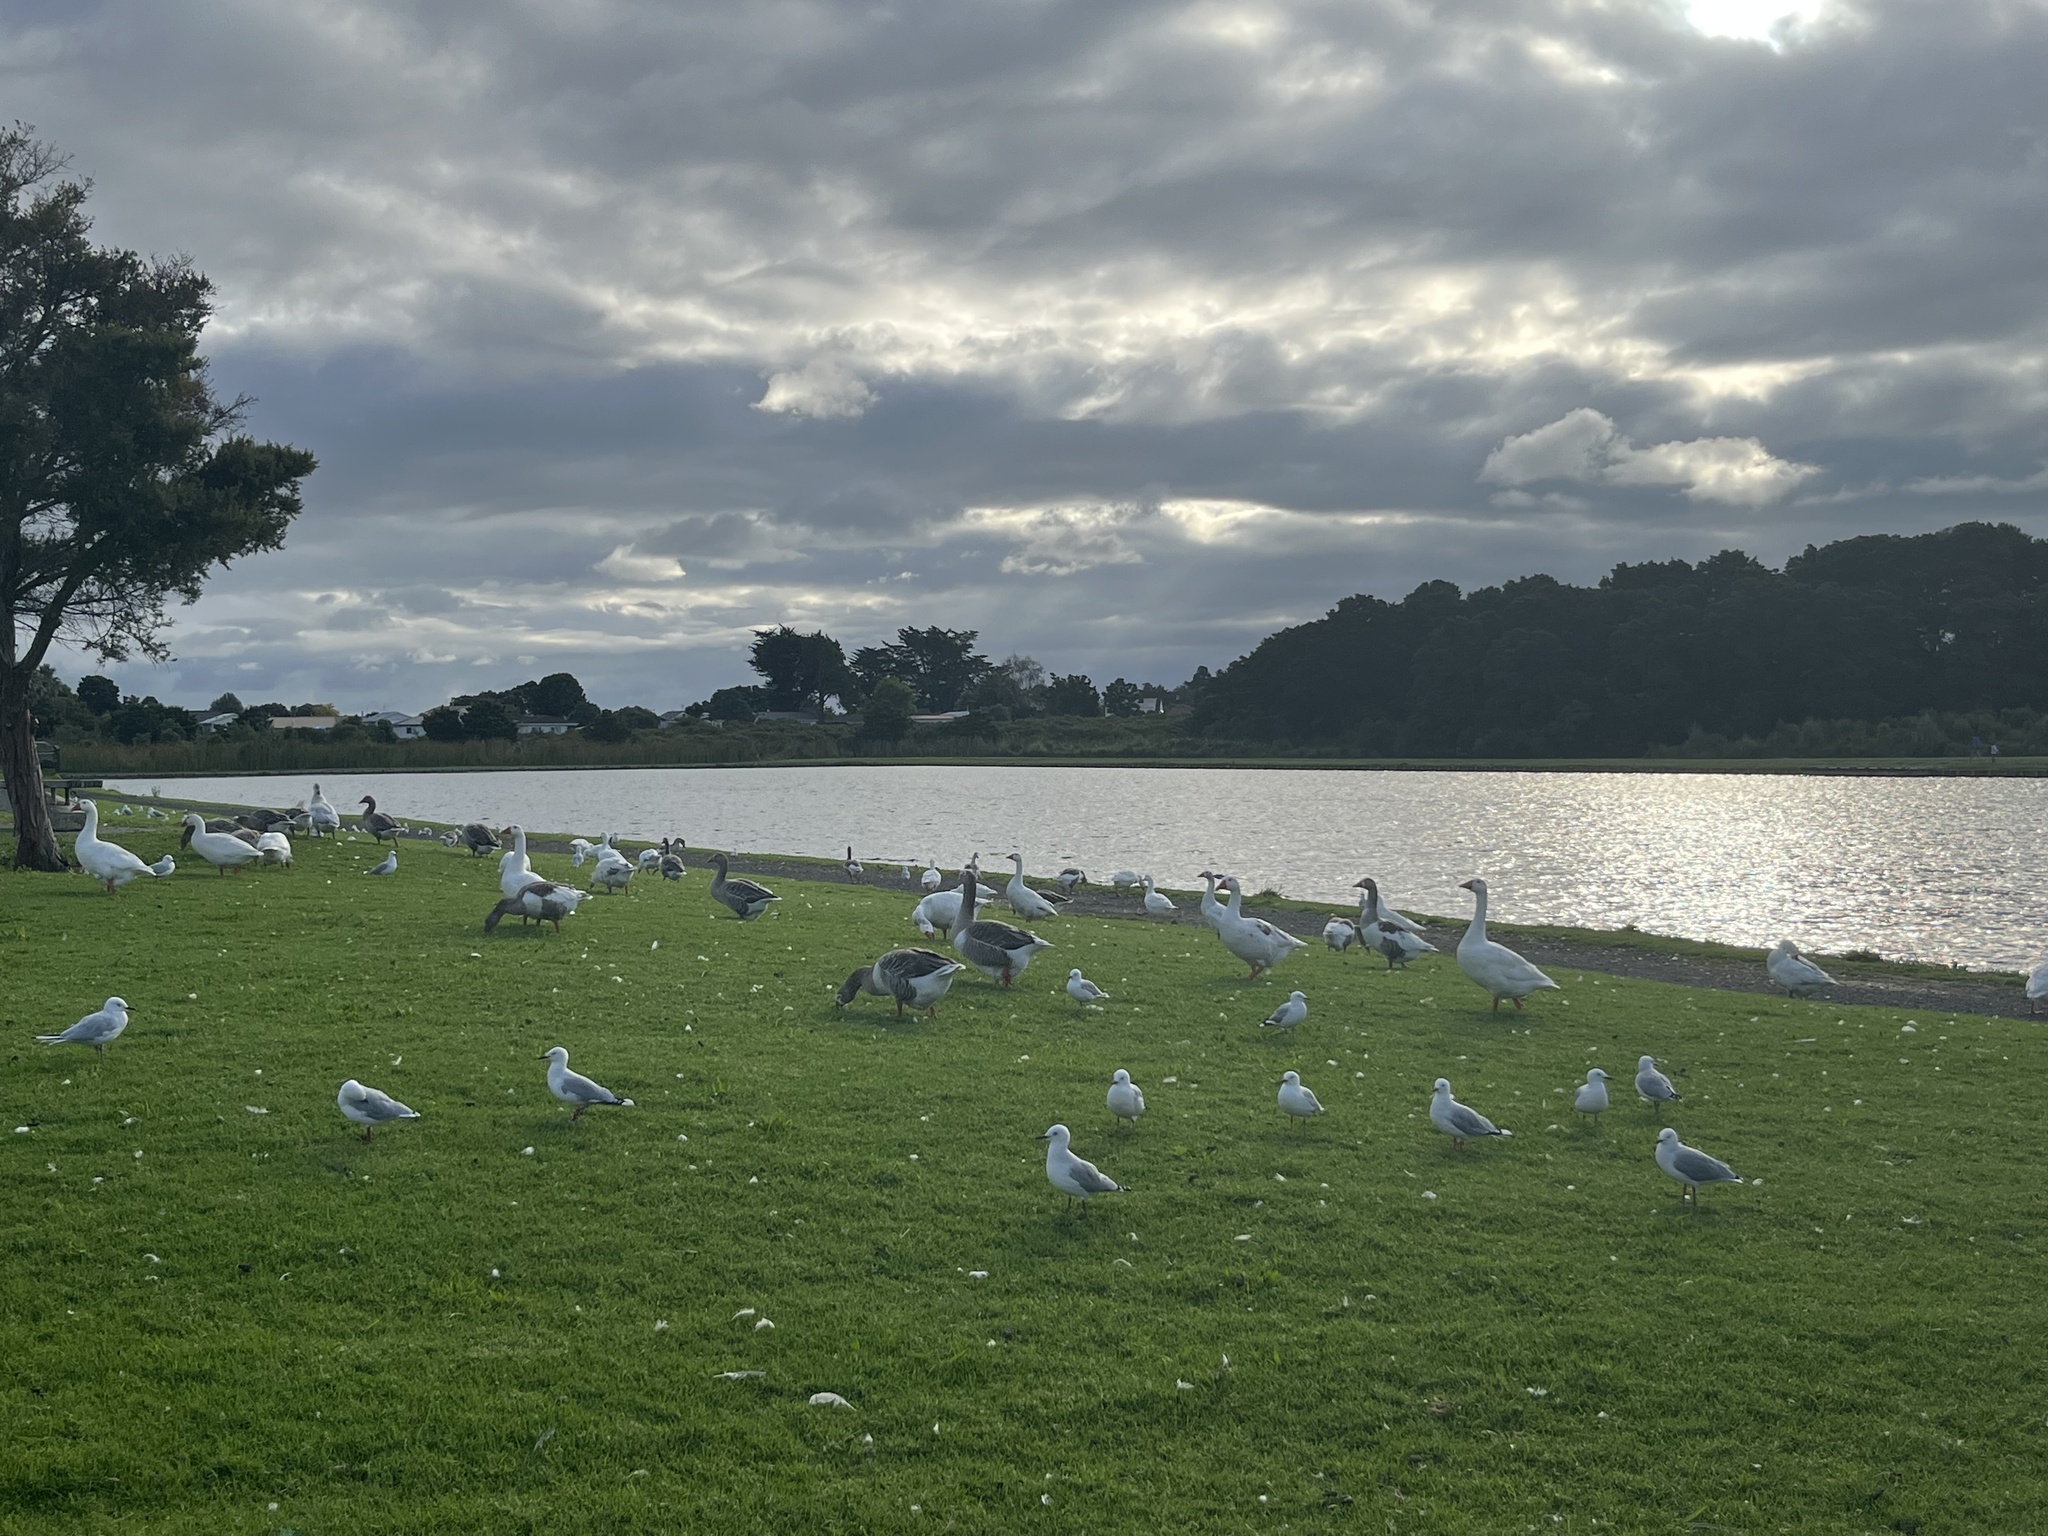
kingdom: Animalia
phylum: Chordata
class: Aves
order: Anseriformes
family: Anatidae
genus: Anser
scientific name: Anser anser
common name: Greylag goose
